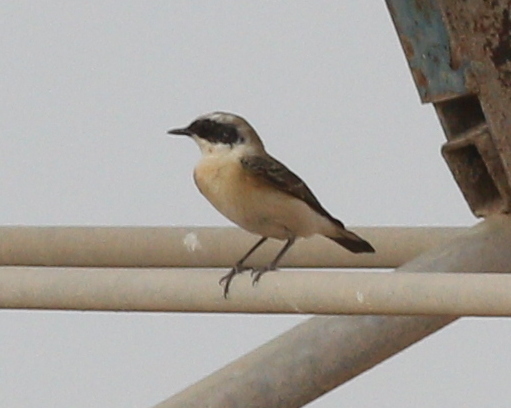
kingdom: Animalia
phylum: Chordata
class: Aves
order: Passeriformes
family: Muscicapidae
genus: Oenanthe
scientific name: Oenanthe hispanica
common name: Black-eared wheatear
